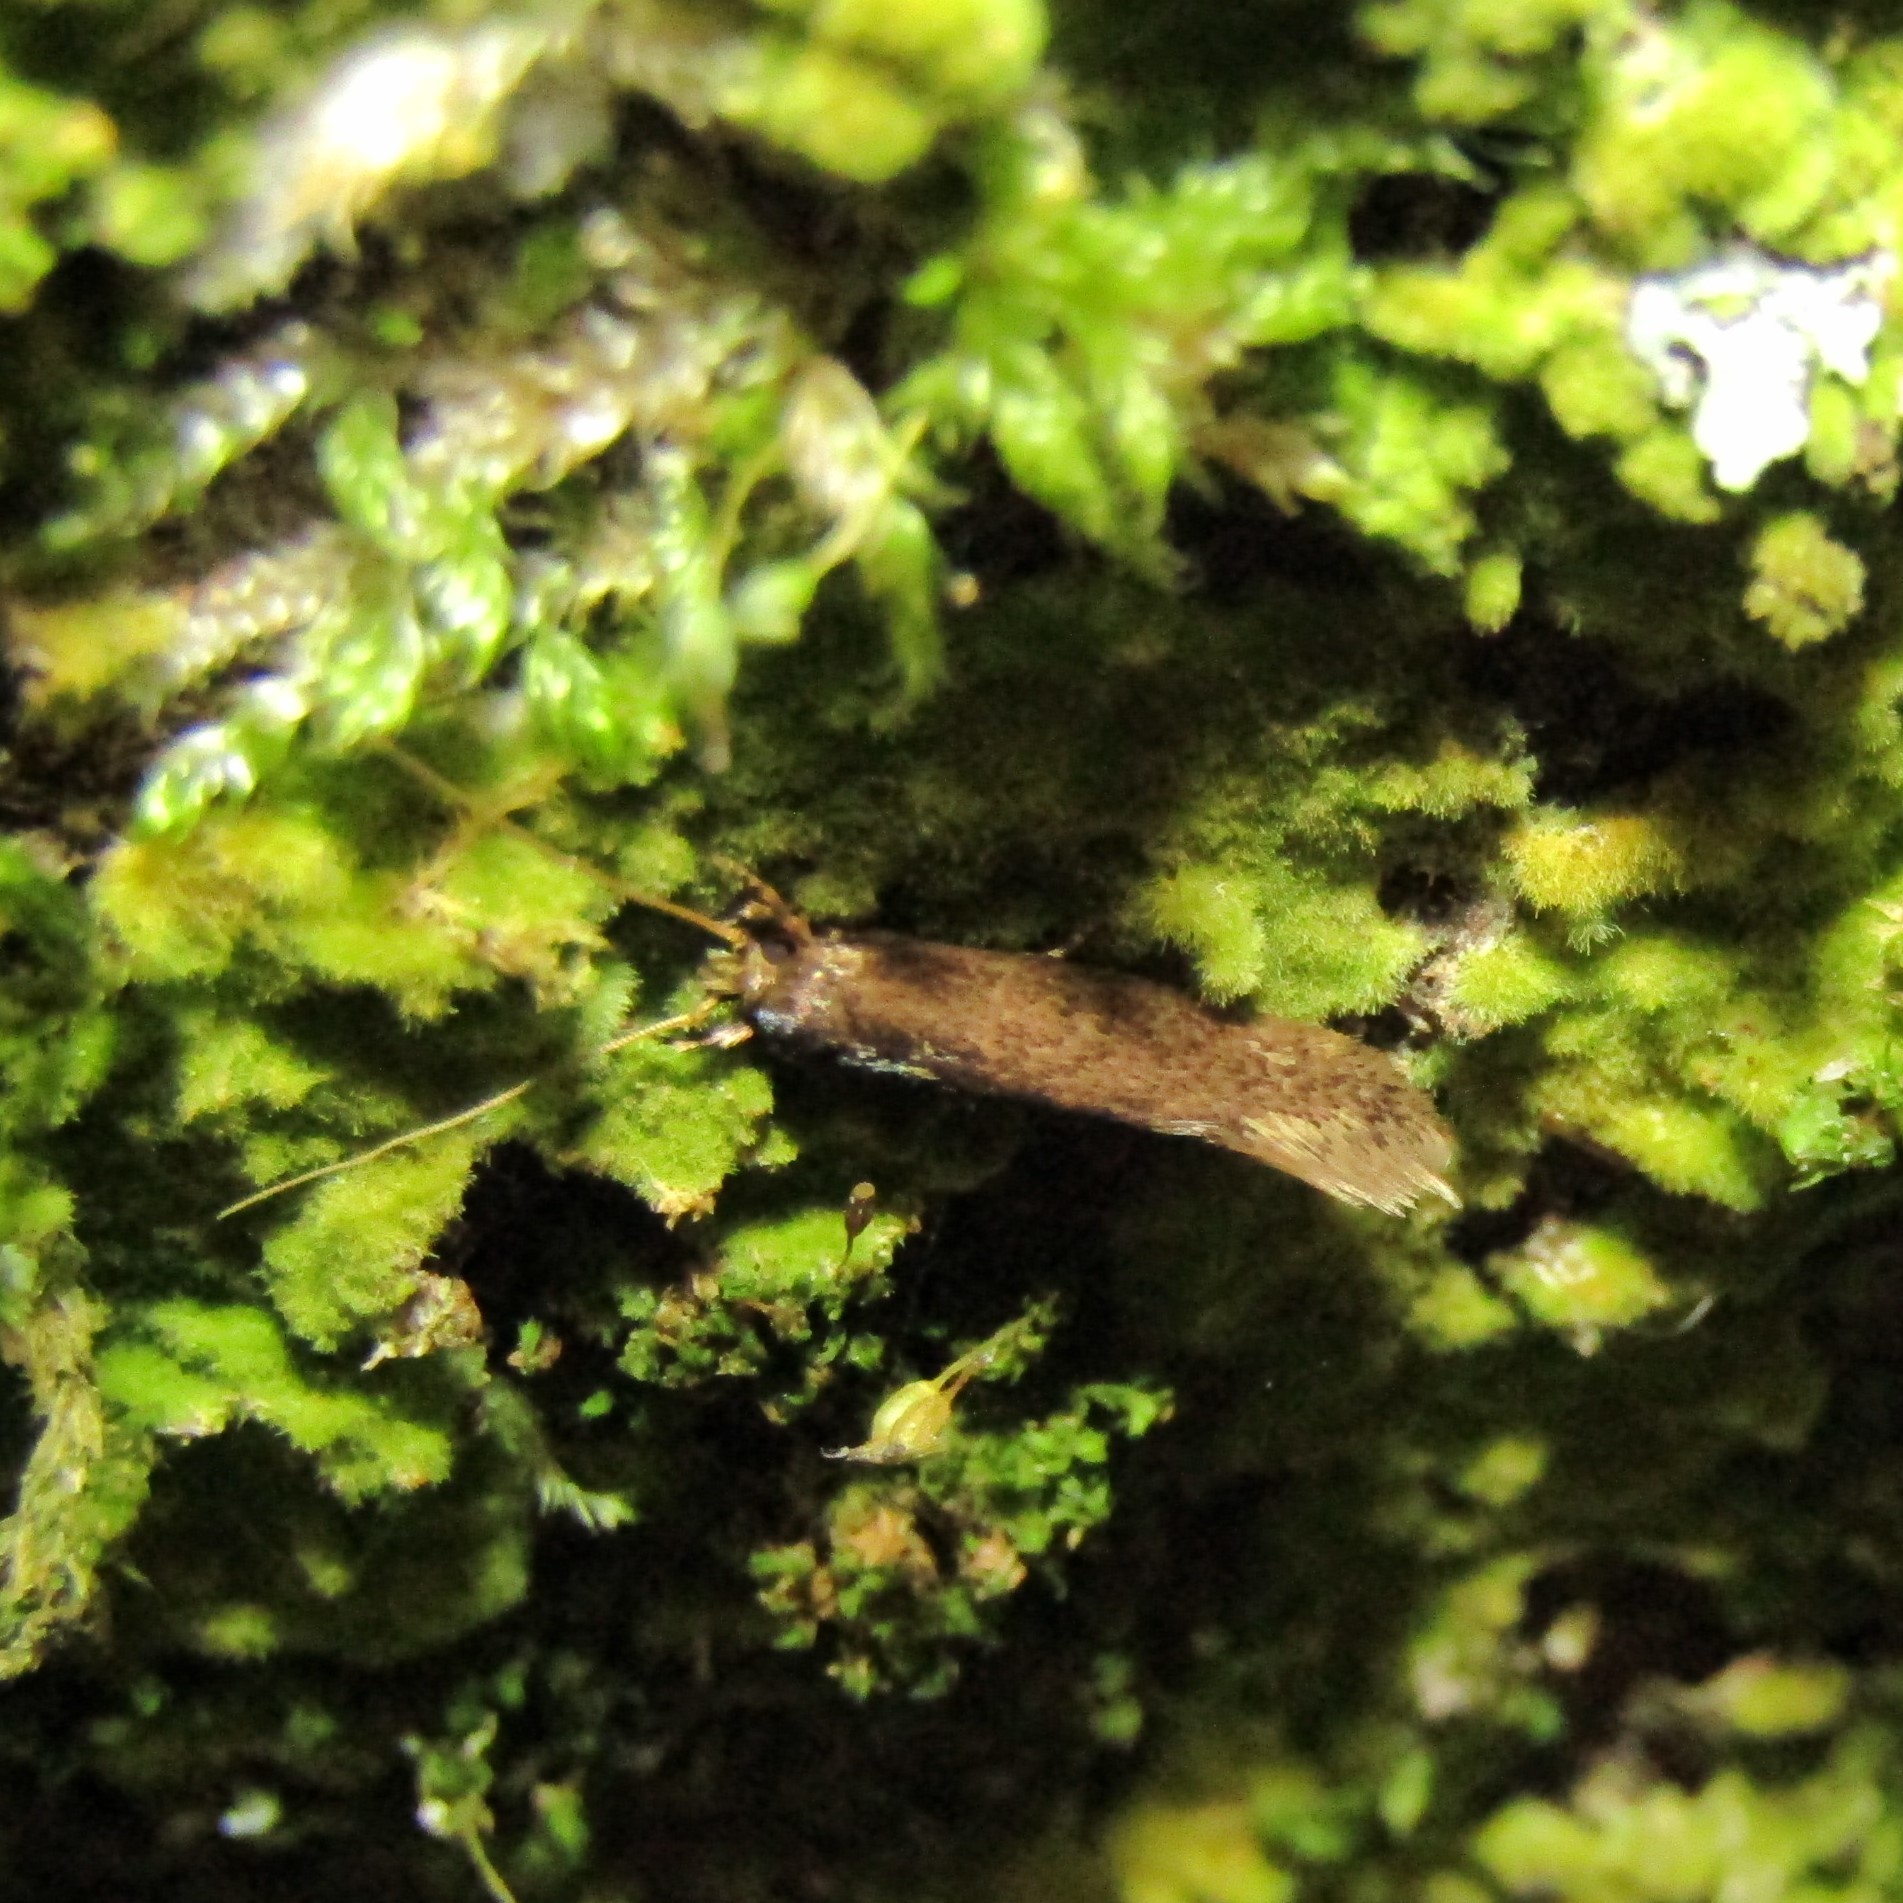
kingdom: Animalia
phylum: Arthropoda
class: Insecta
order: Lepidoptera
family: Tineidae
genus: Opogona
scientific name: Opogona omoscopa
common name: Moth
